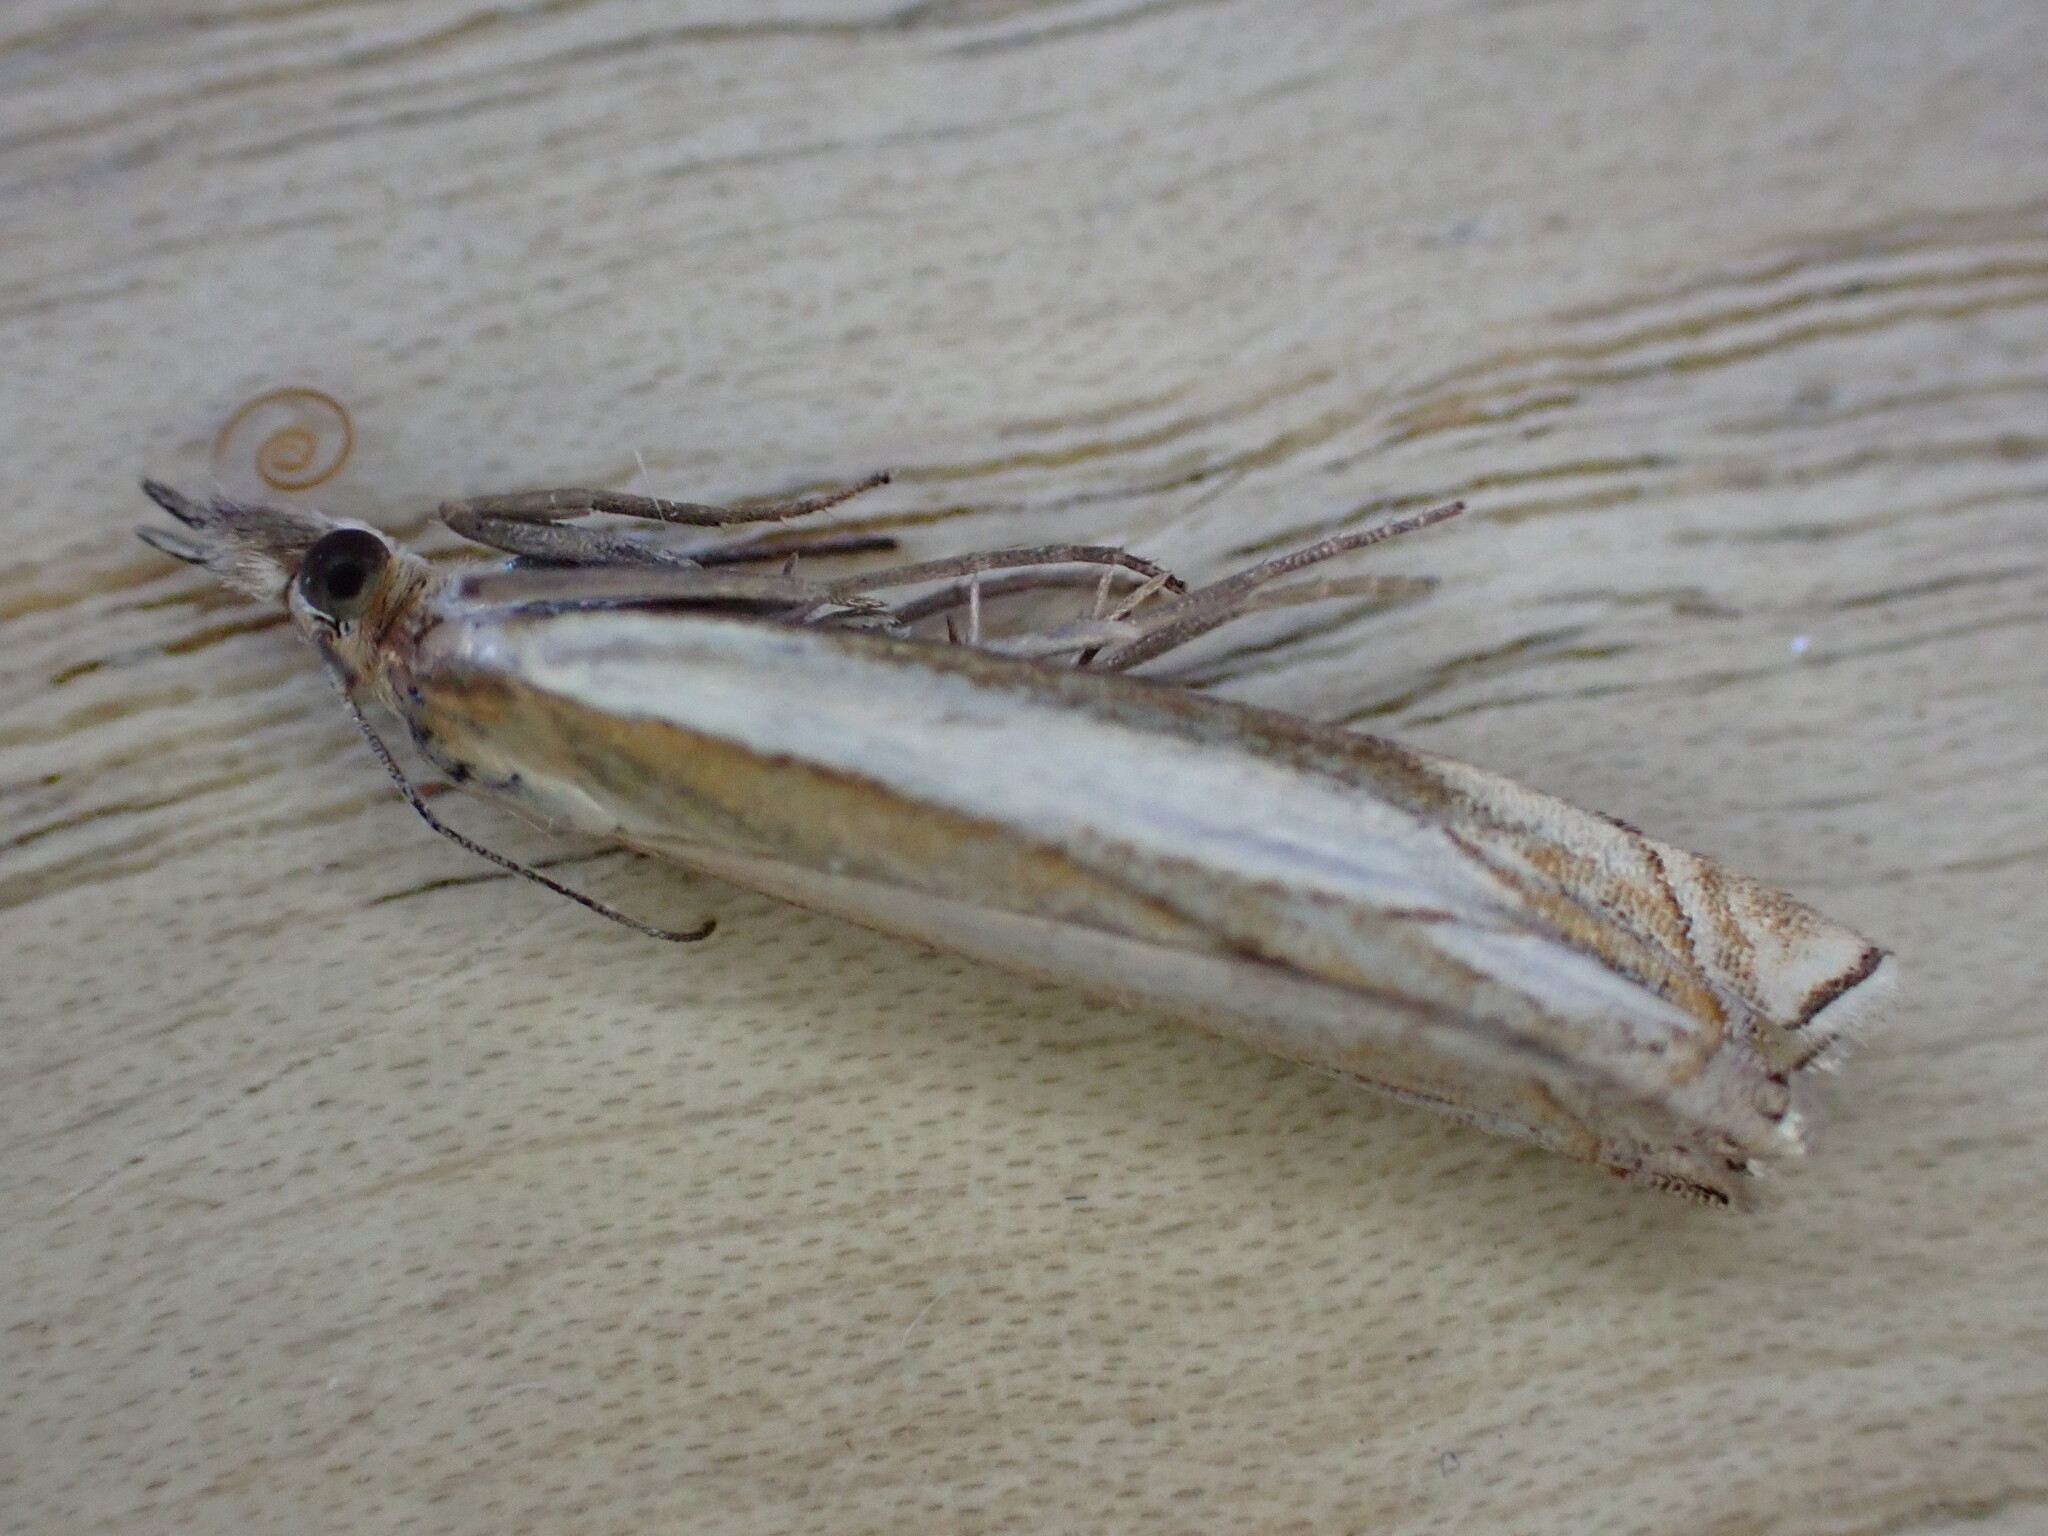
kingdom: Animalia
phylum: Arthropoda
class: Insecta
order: Lepidoptera
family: Crambidae
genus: Crambus
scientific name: Crambus pascuella
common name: Inlaid grass-veneer
